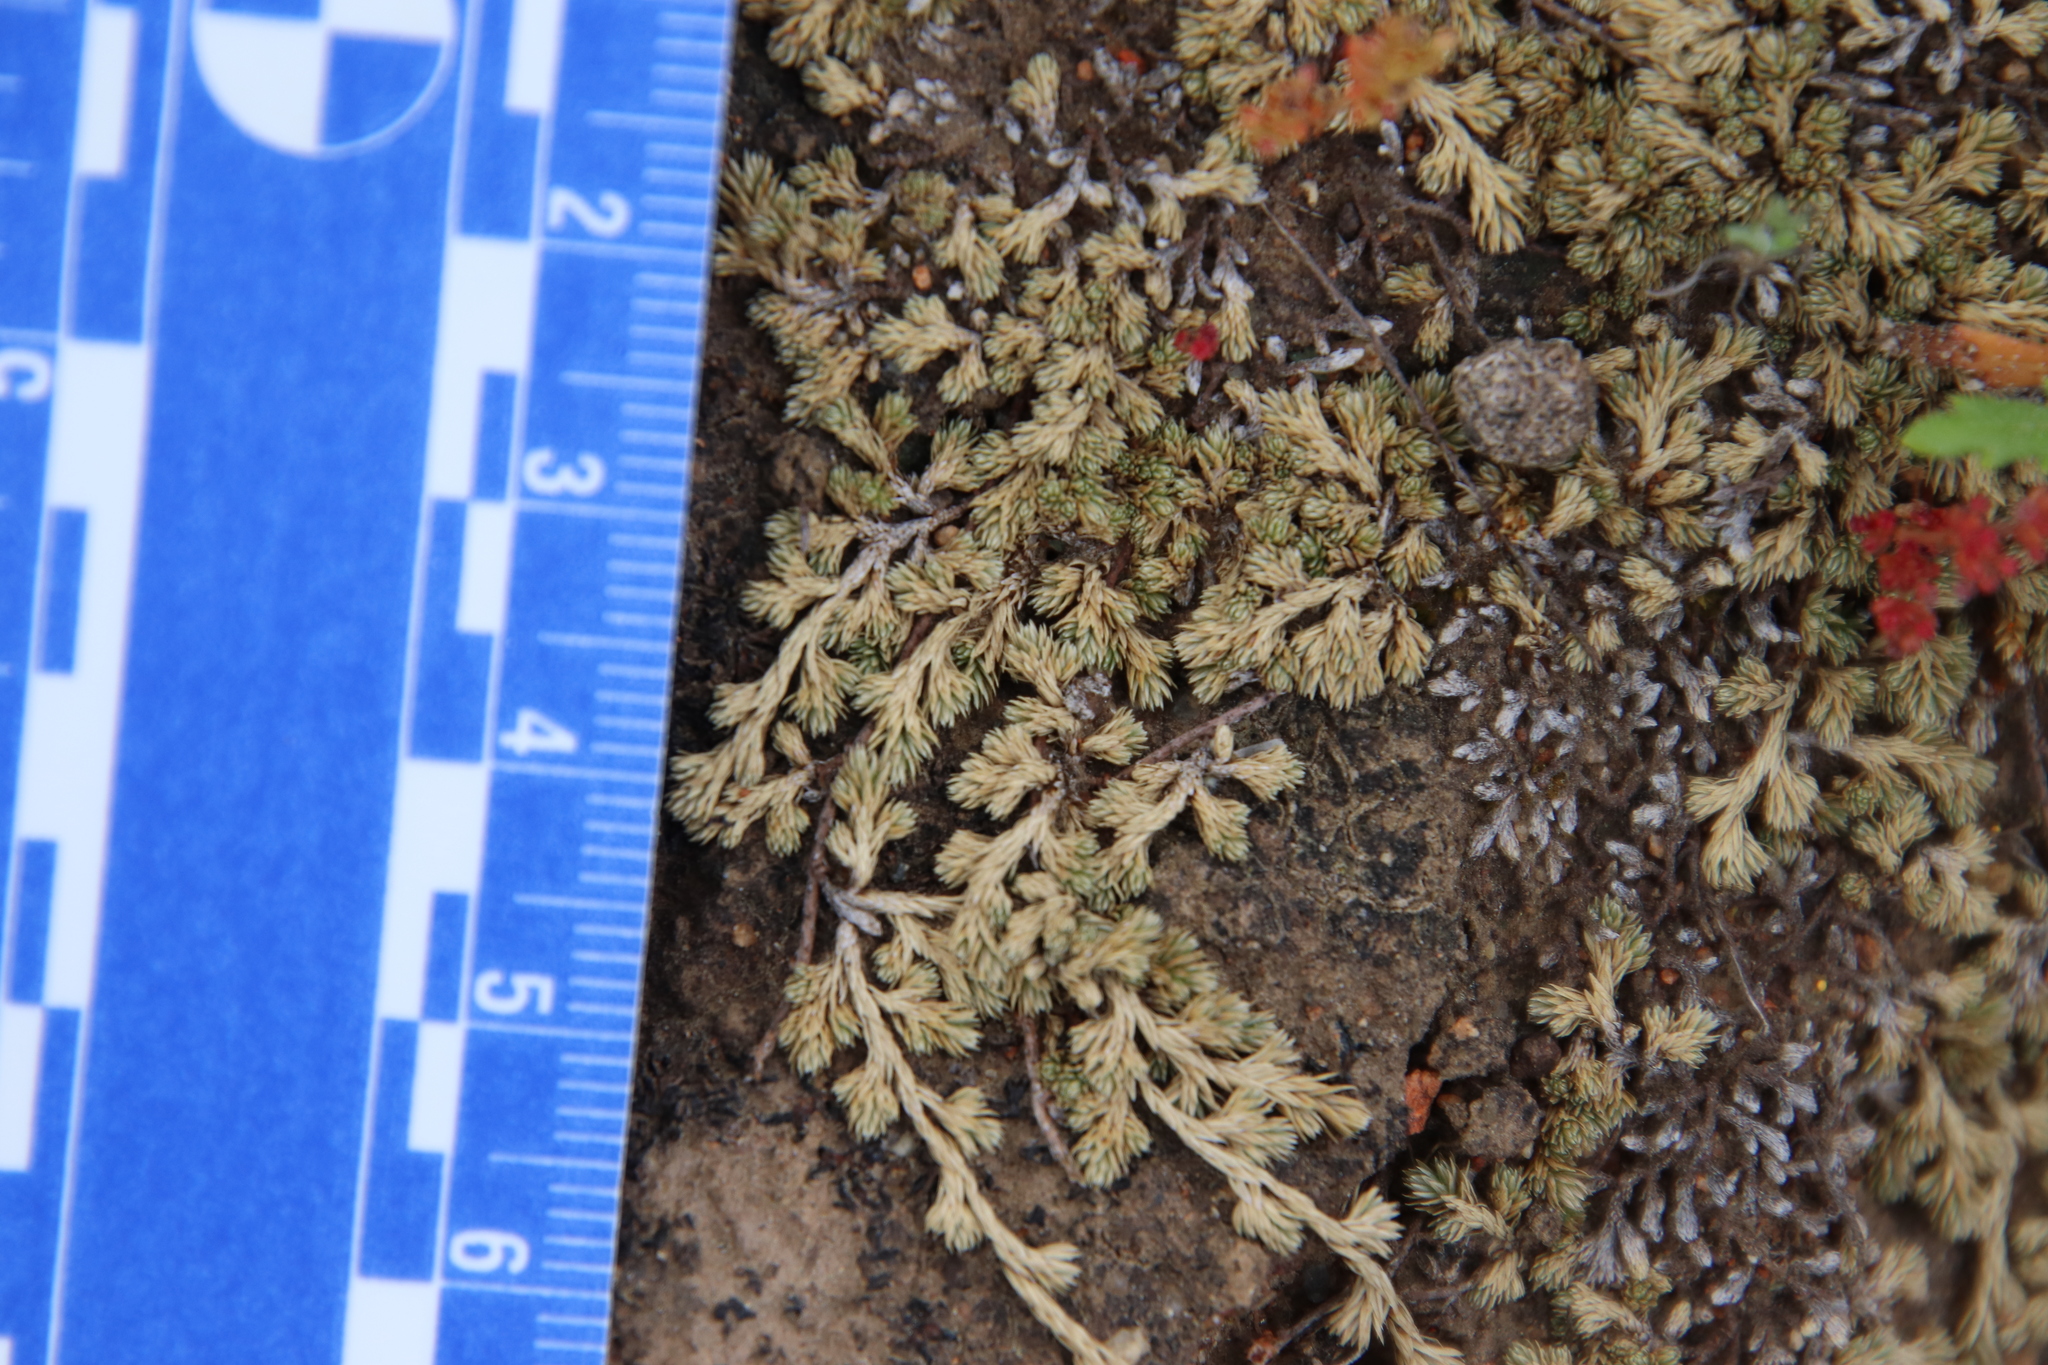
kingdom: Plantae
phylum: Tracheophyta
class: Lycopodiopsida
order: Selaginellales
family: Selaginellaceae
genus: Selaginella
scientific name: Selaginella cinerascens
